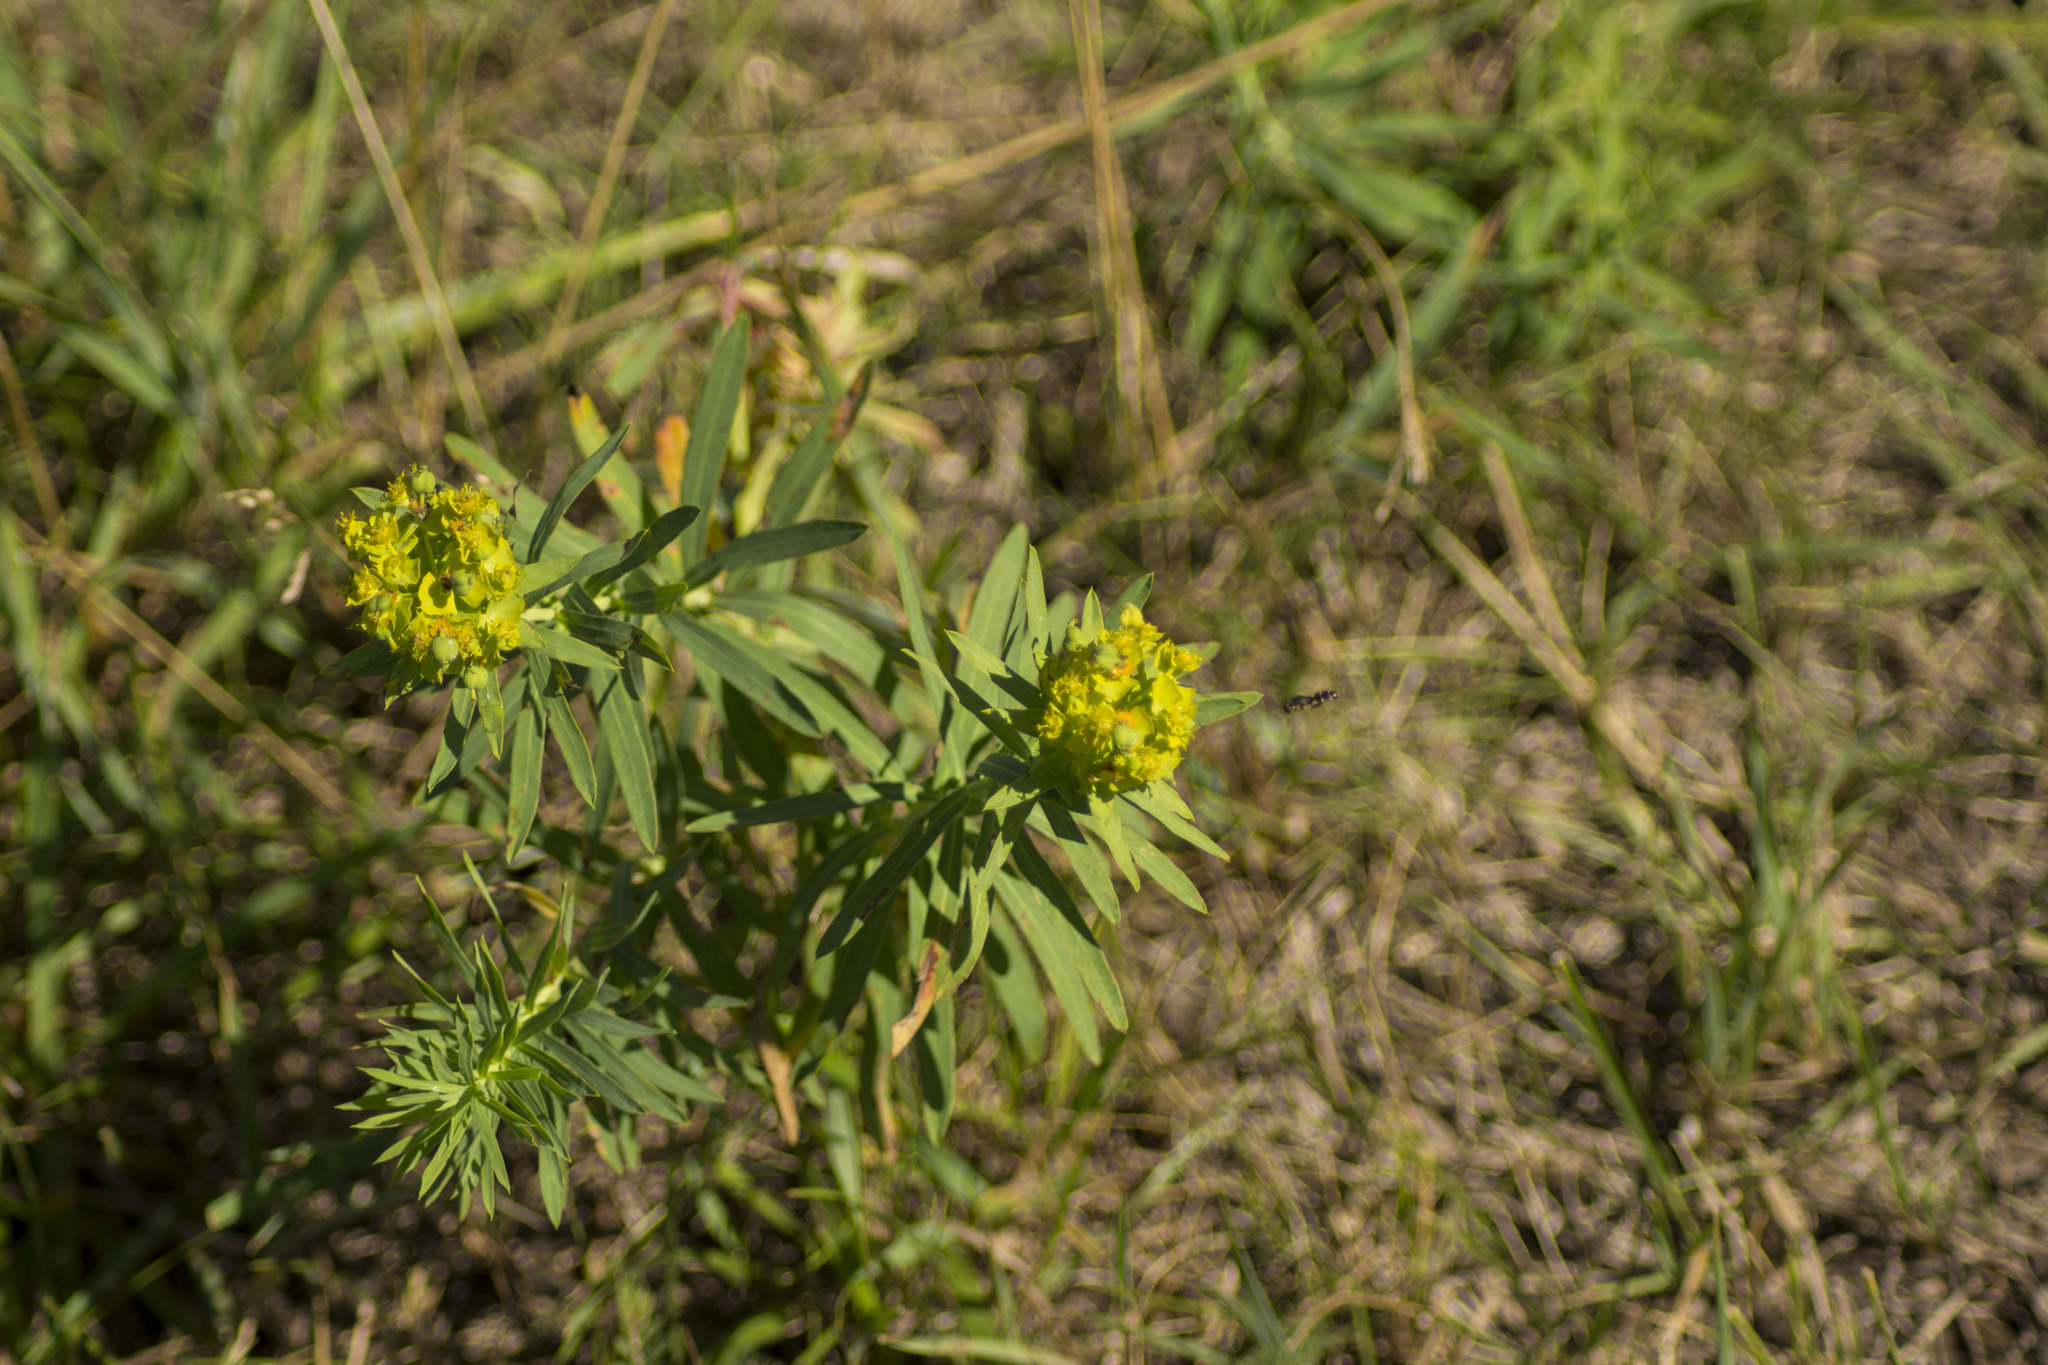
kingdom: Plantae
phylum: Tracheophyta
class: Magnoliopsida
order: Malpighiales
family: Euphorbiaceae
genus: Euphorbia
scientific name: Euphorbia virgata
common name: Leafy spurge
